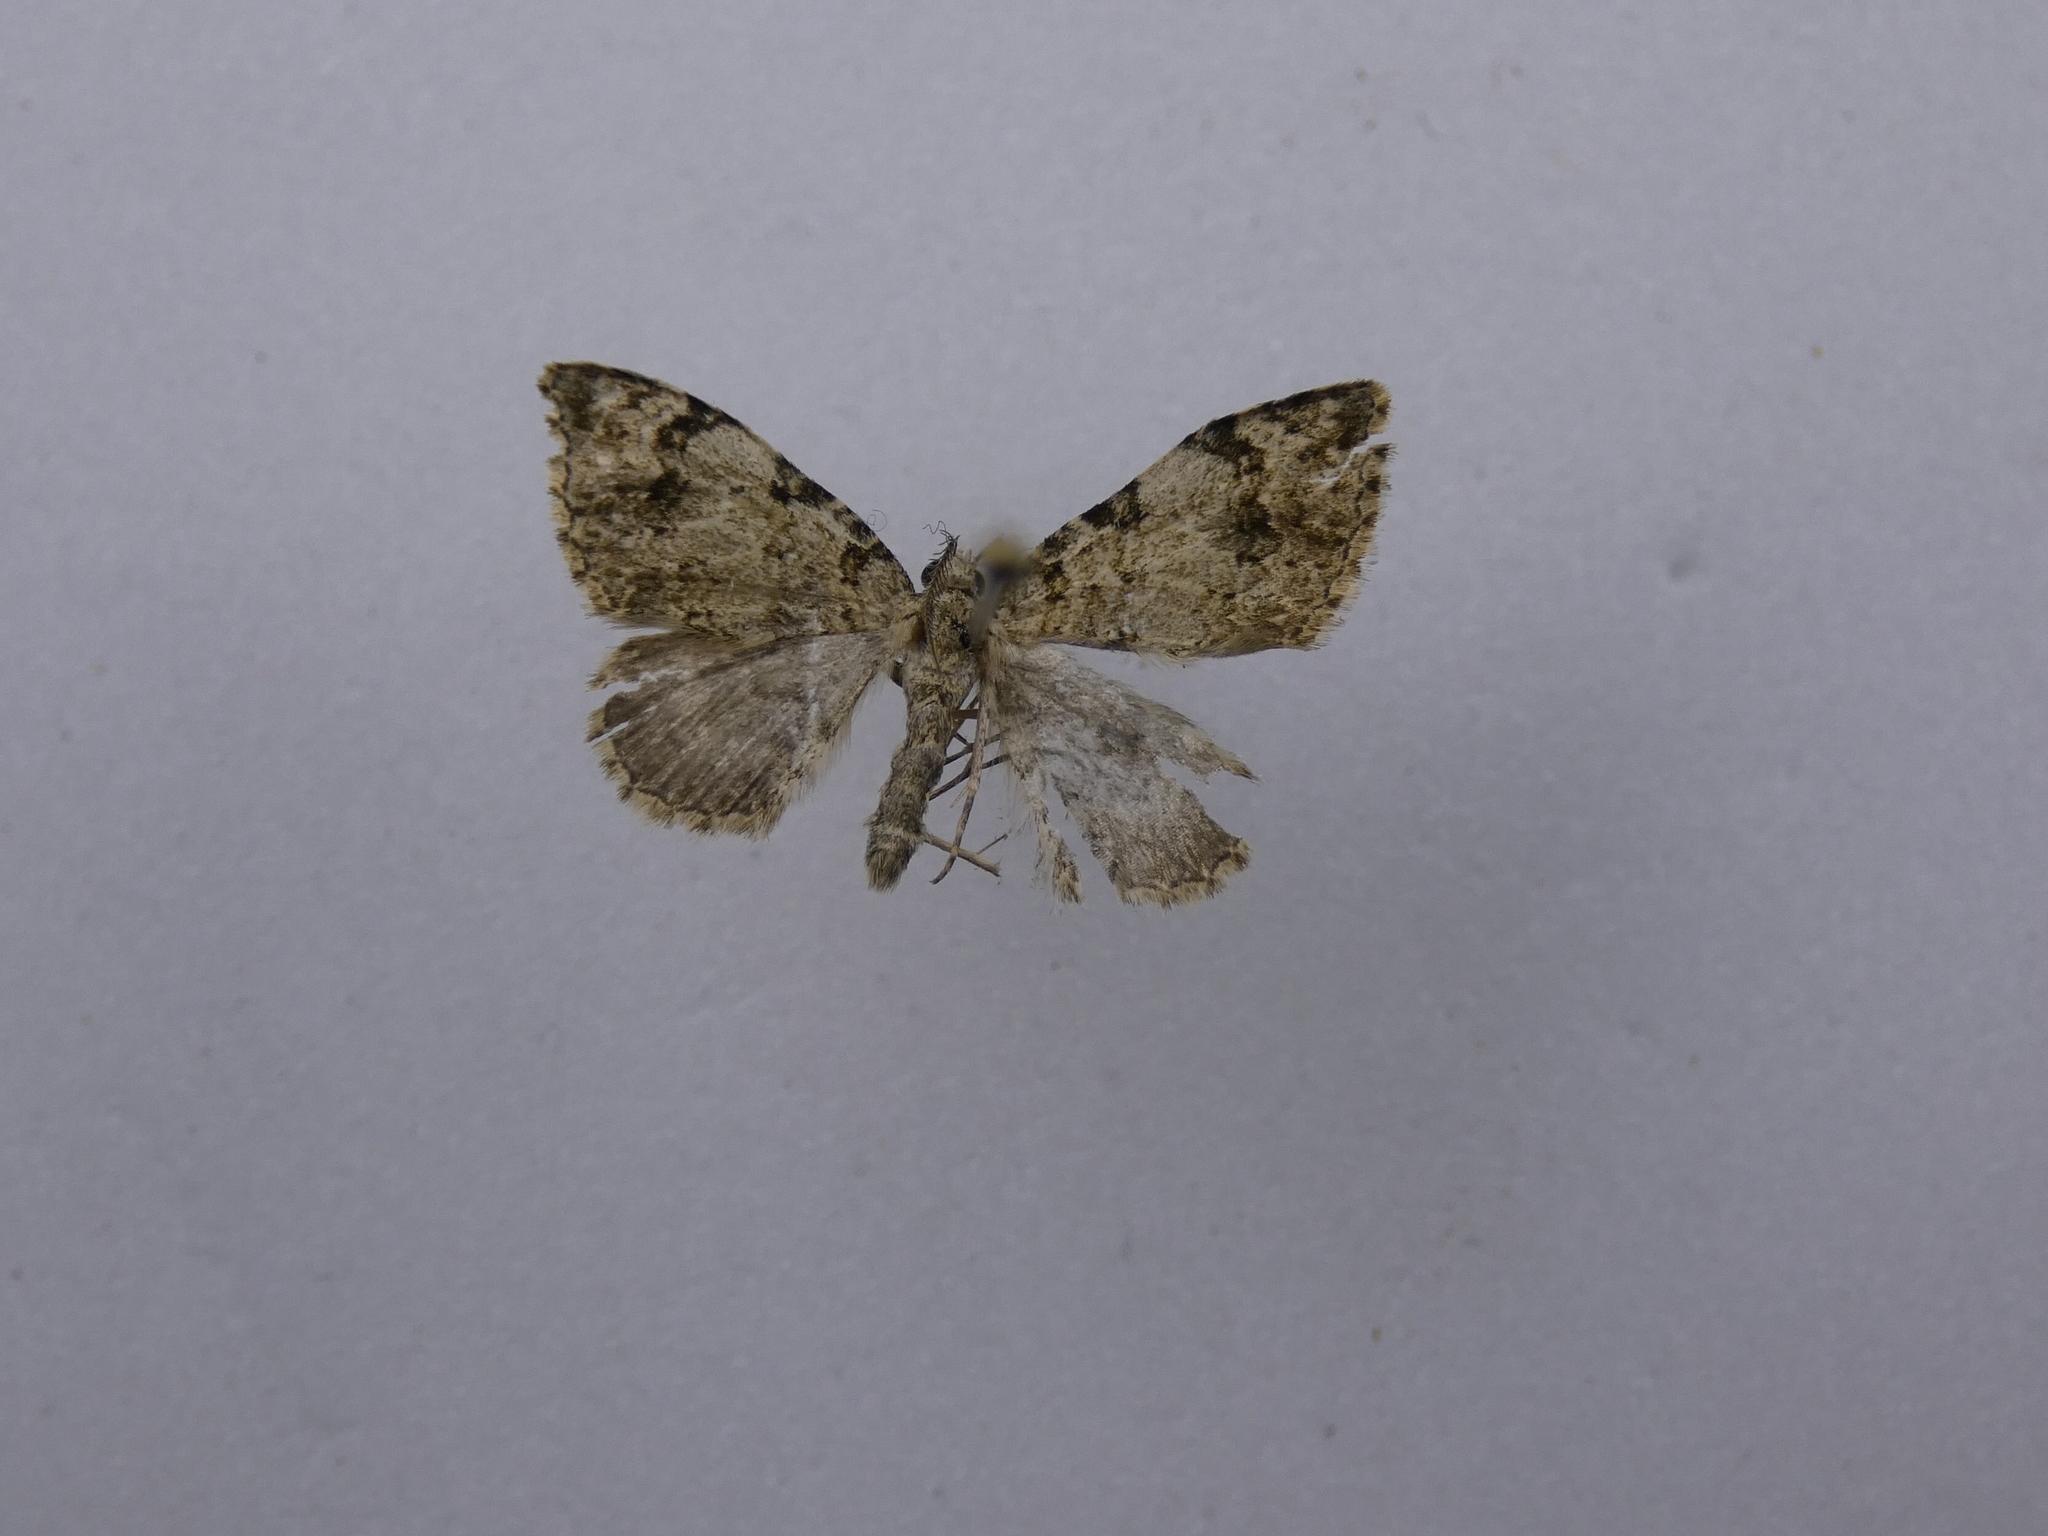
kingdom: Animalia
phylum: Arthropoda
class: Insecta
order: Lepidoptera
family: Geometridae
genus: Helastia
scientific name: Helastia cinerearia
